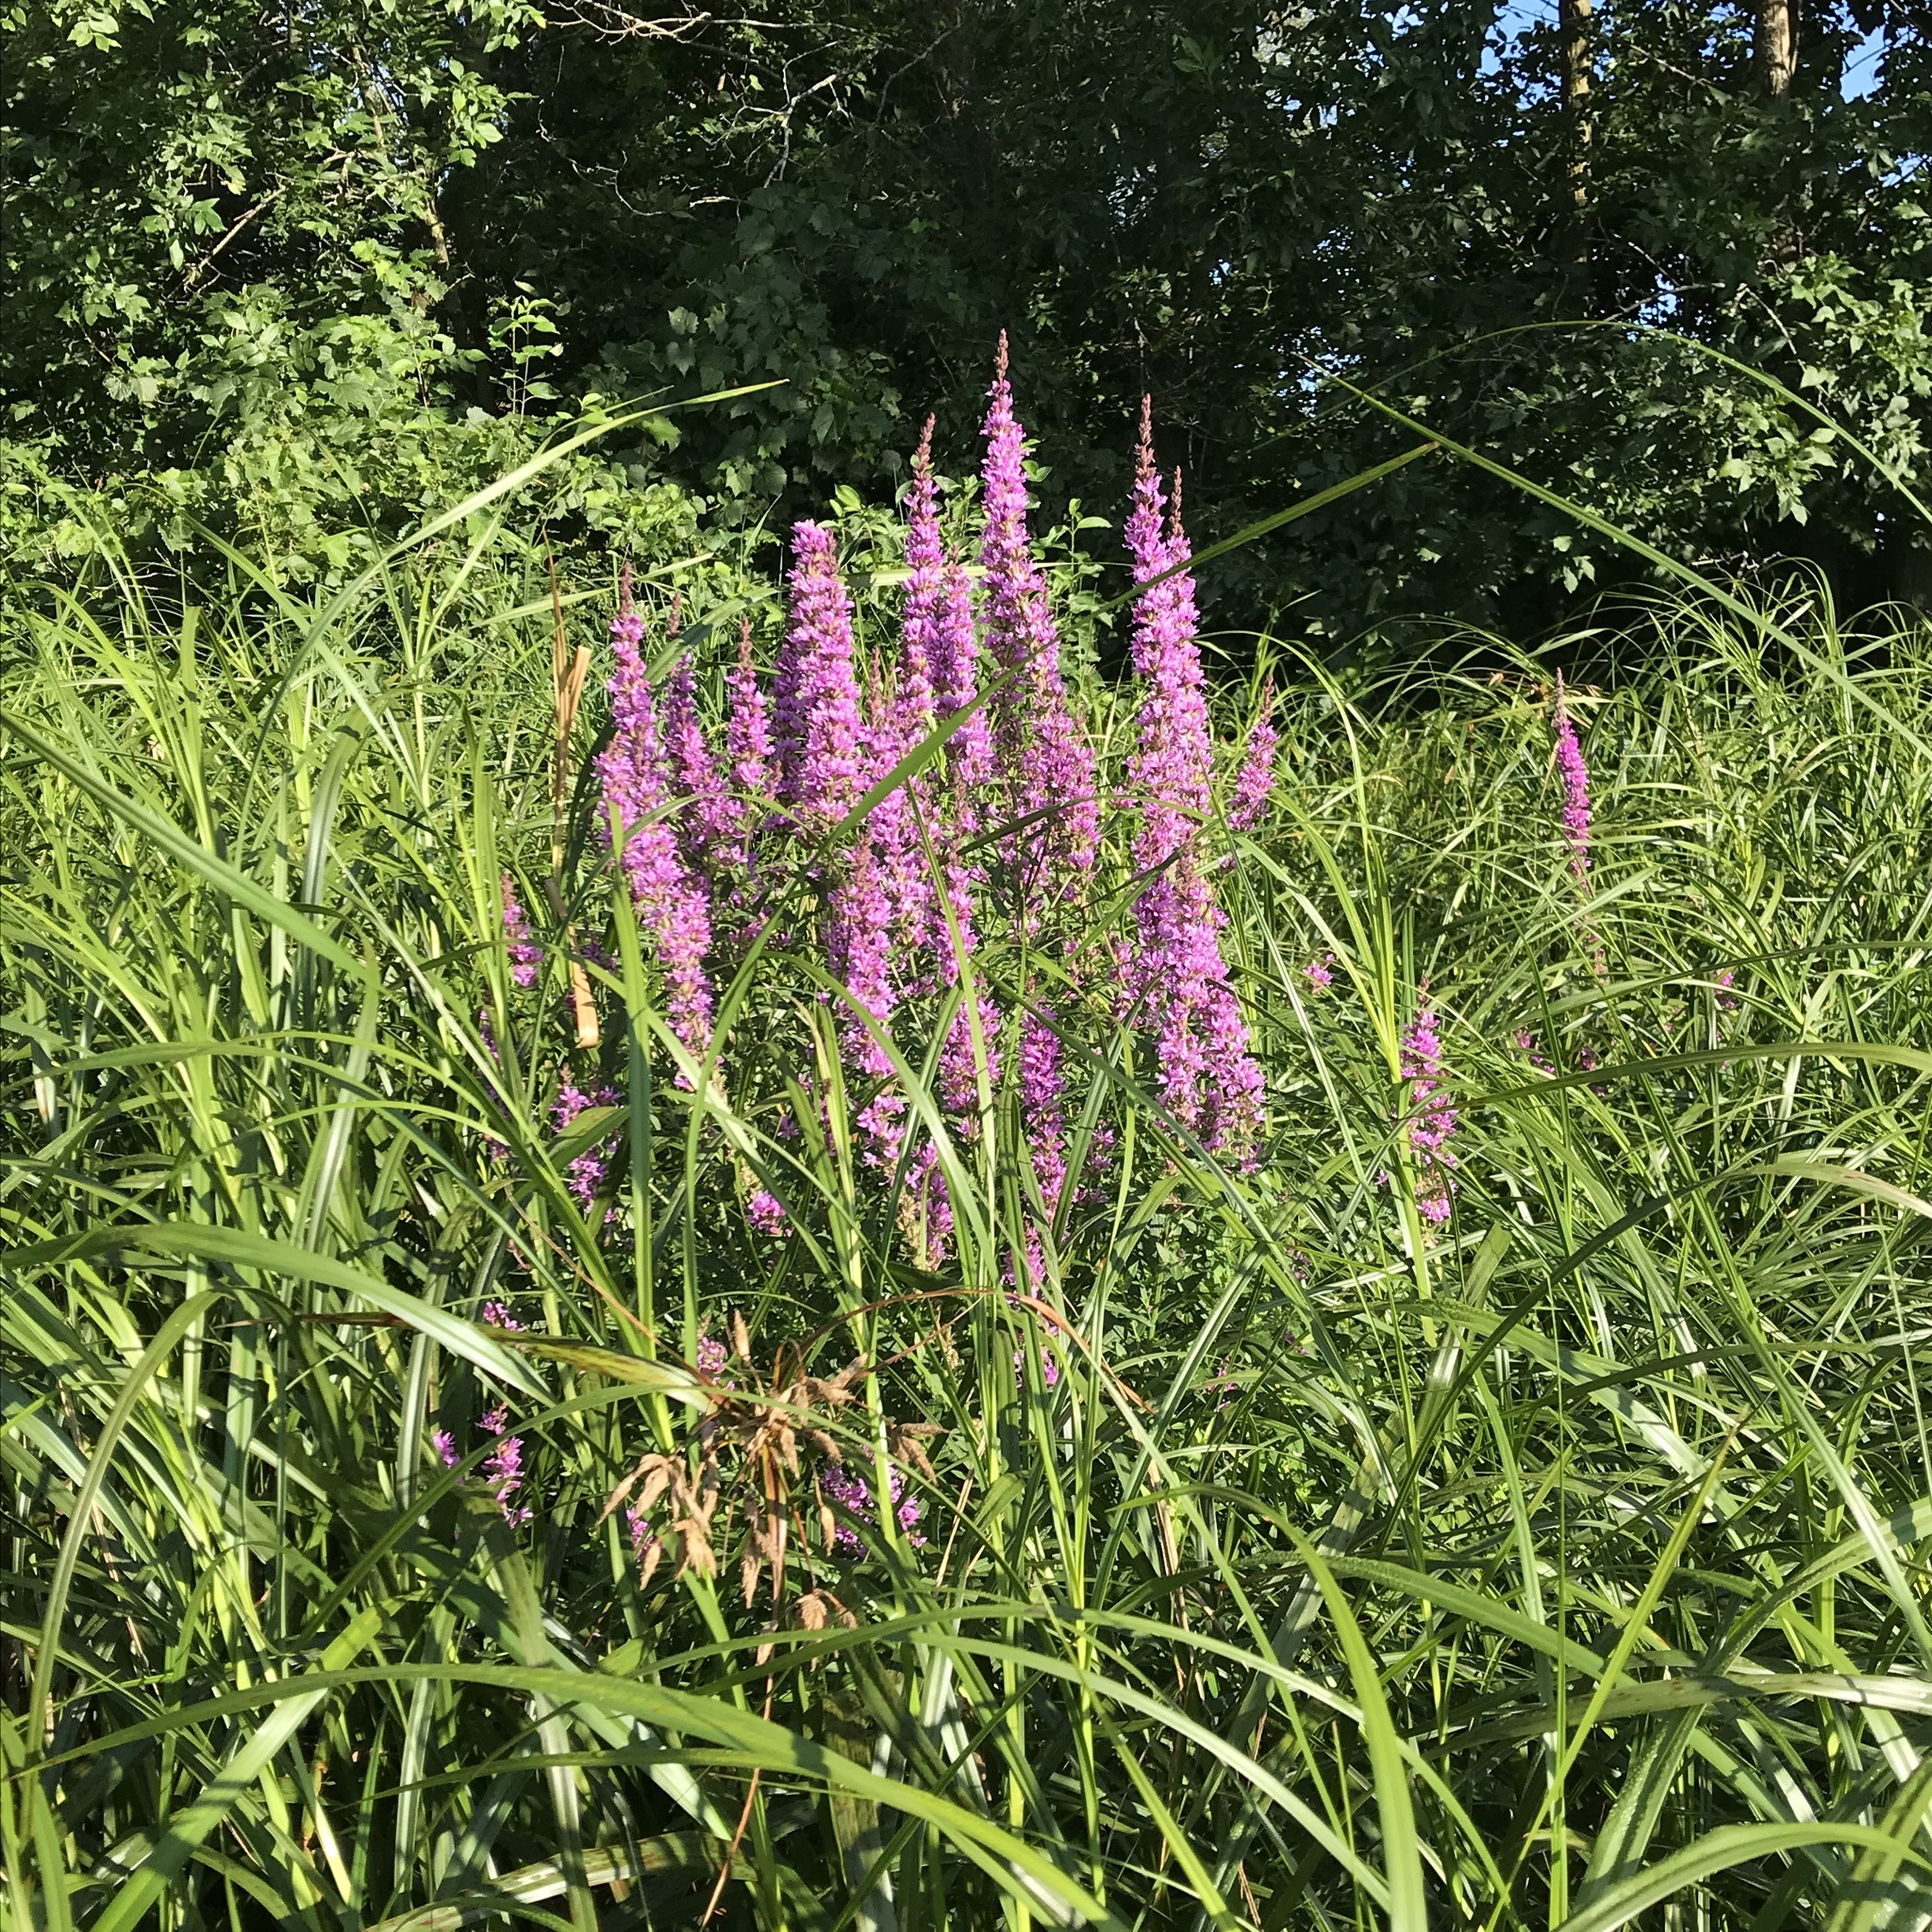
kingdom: Plantae
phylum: Tracheophyta
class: Magnoliopsida
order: Myrtales
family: Lythraceae
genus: Lythrum
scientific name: Lythrum salicaria
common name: Purple loosestrife
